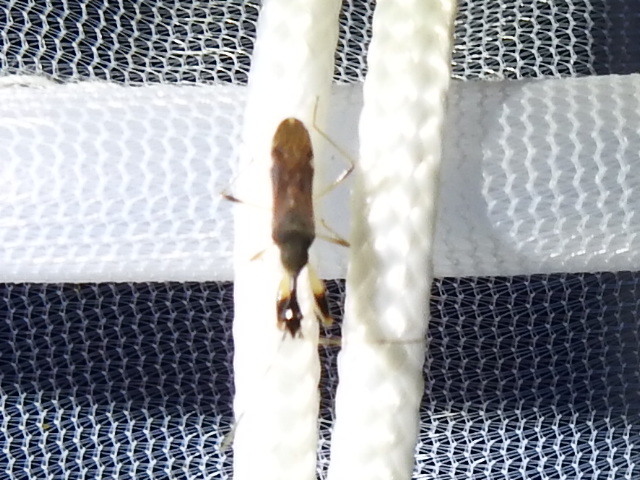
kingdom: Animalia
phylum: Arthropoda
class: Insecta
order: Hemiptera
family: Rhyparochromidae
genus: Myodocha
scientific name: Myodocha serripes
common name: Long-necked seed bug
